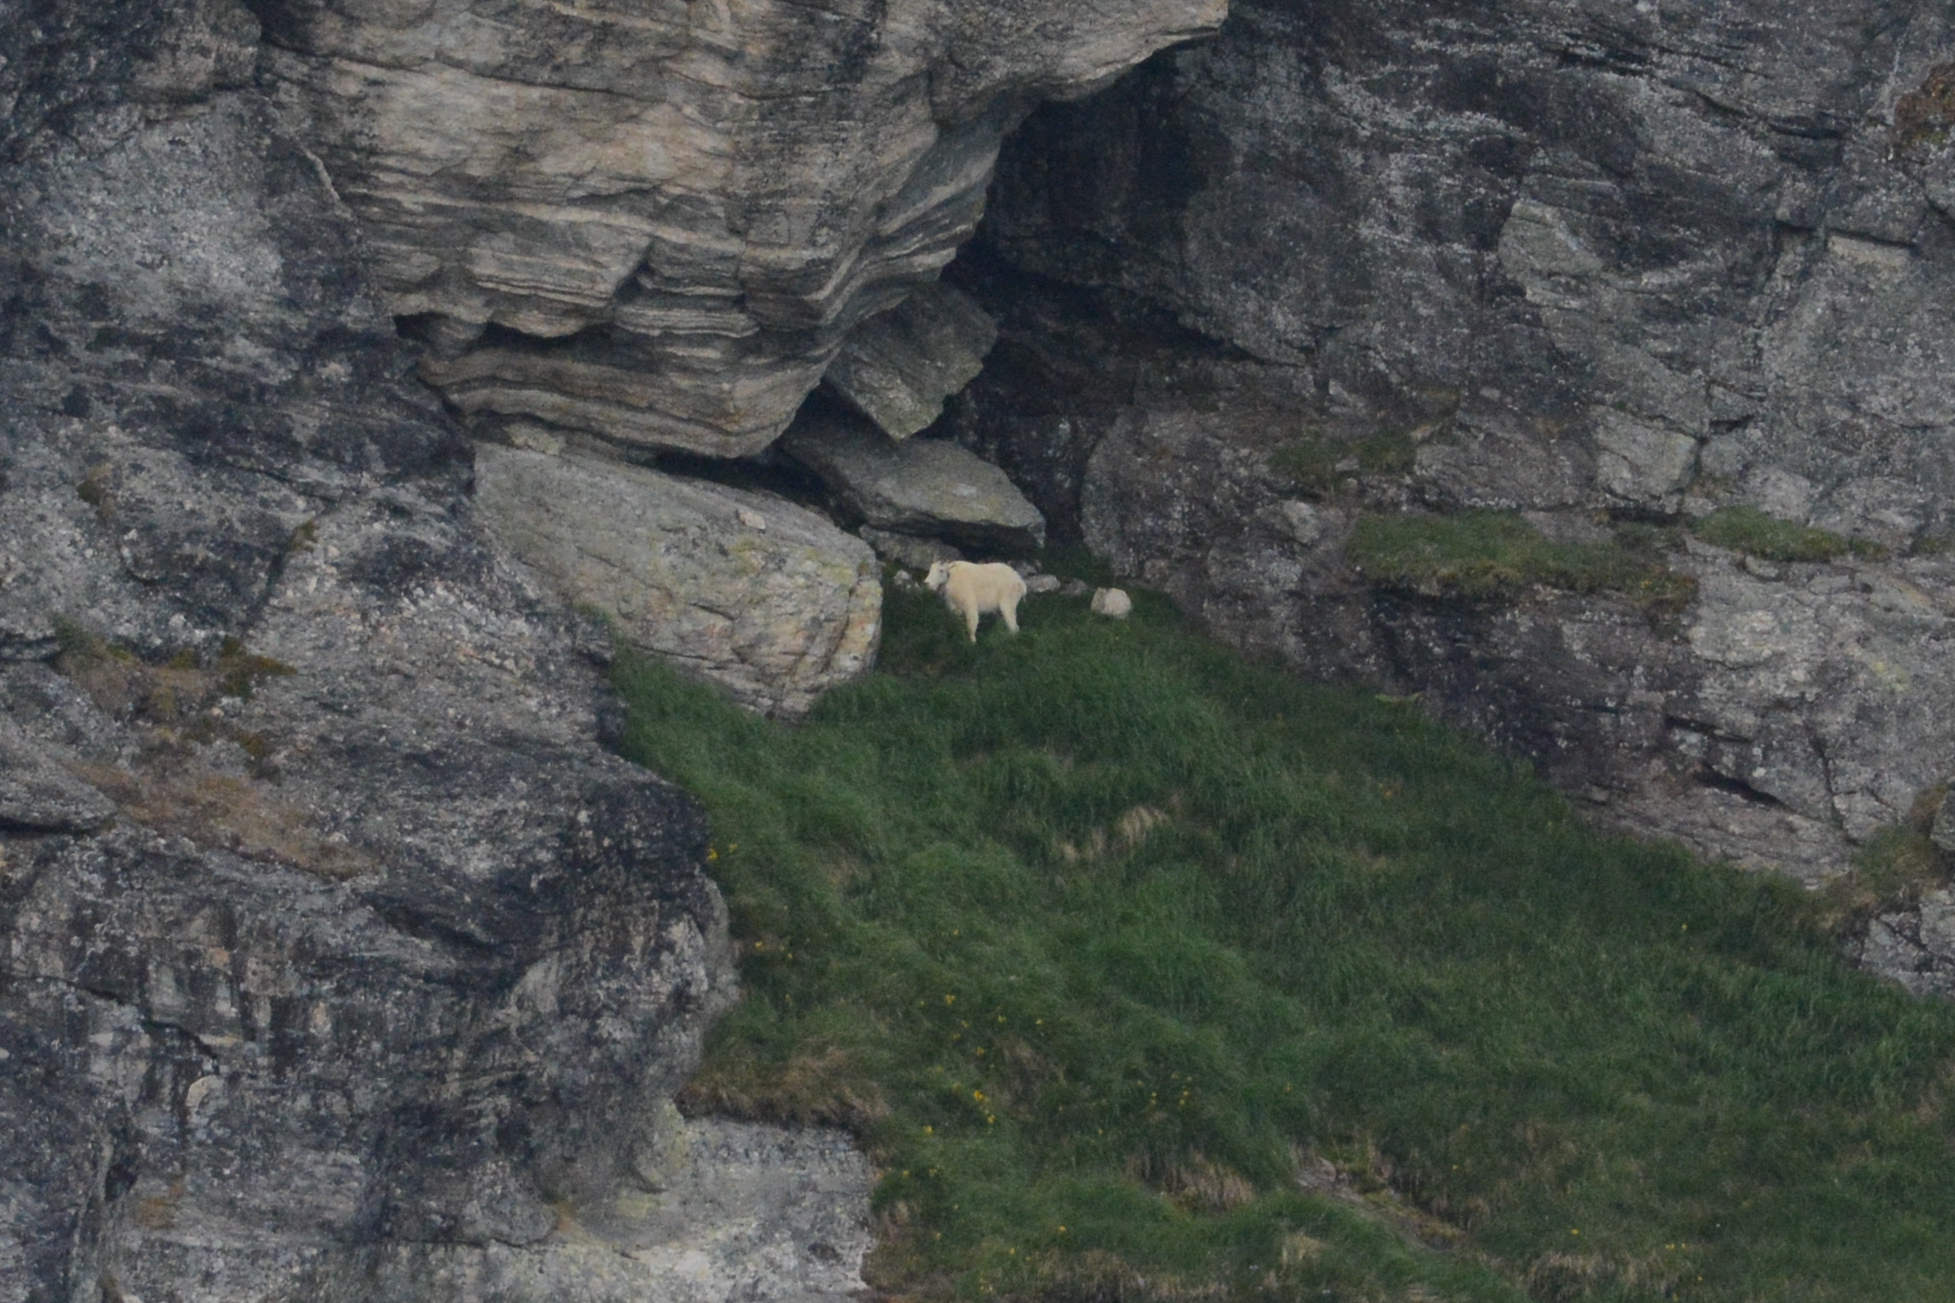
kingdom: Animalia
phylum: Chordata
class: Mammalia
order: Artiodactyla
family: Bovidae
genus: Oreamnos
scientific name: Oreamnos americanus
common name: Mountain goat
